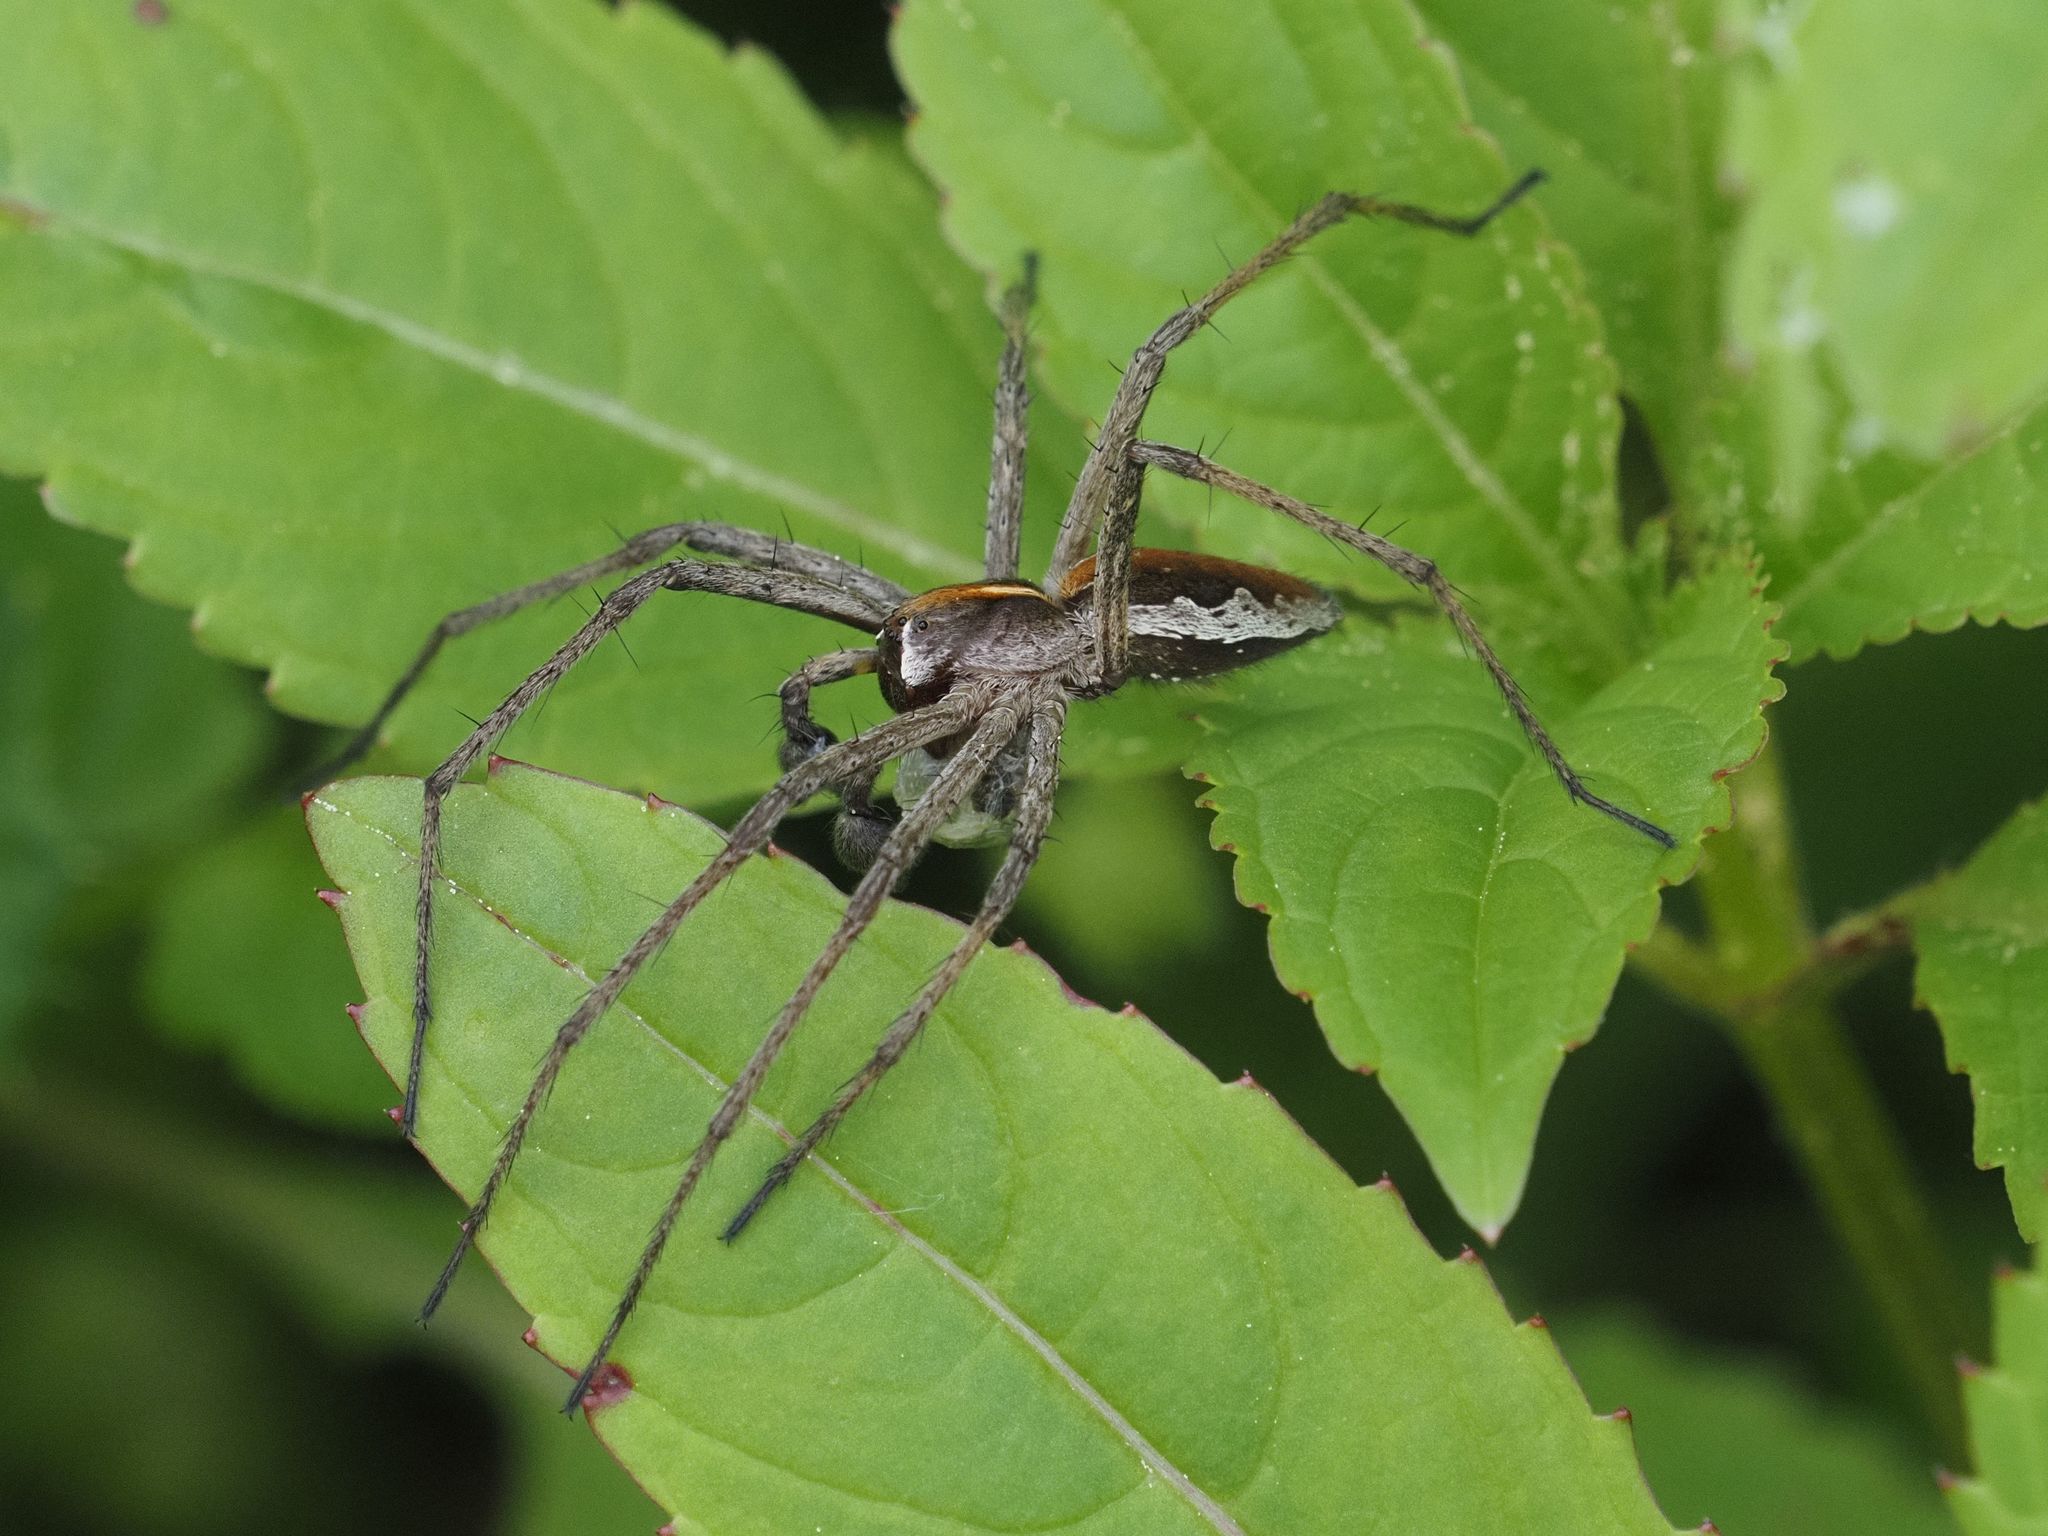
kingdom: Animalia
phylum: Arthropoda
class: Arachnida
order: Araneae
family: Pisauridae
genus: Pisaura
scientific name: Pisaura mirabilis
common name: Tent spider
